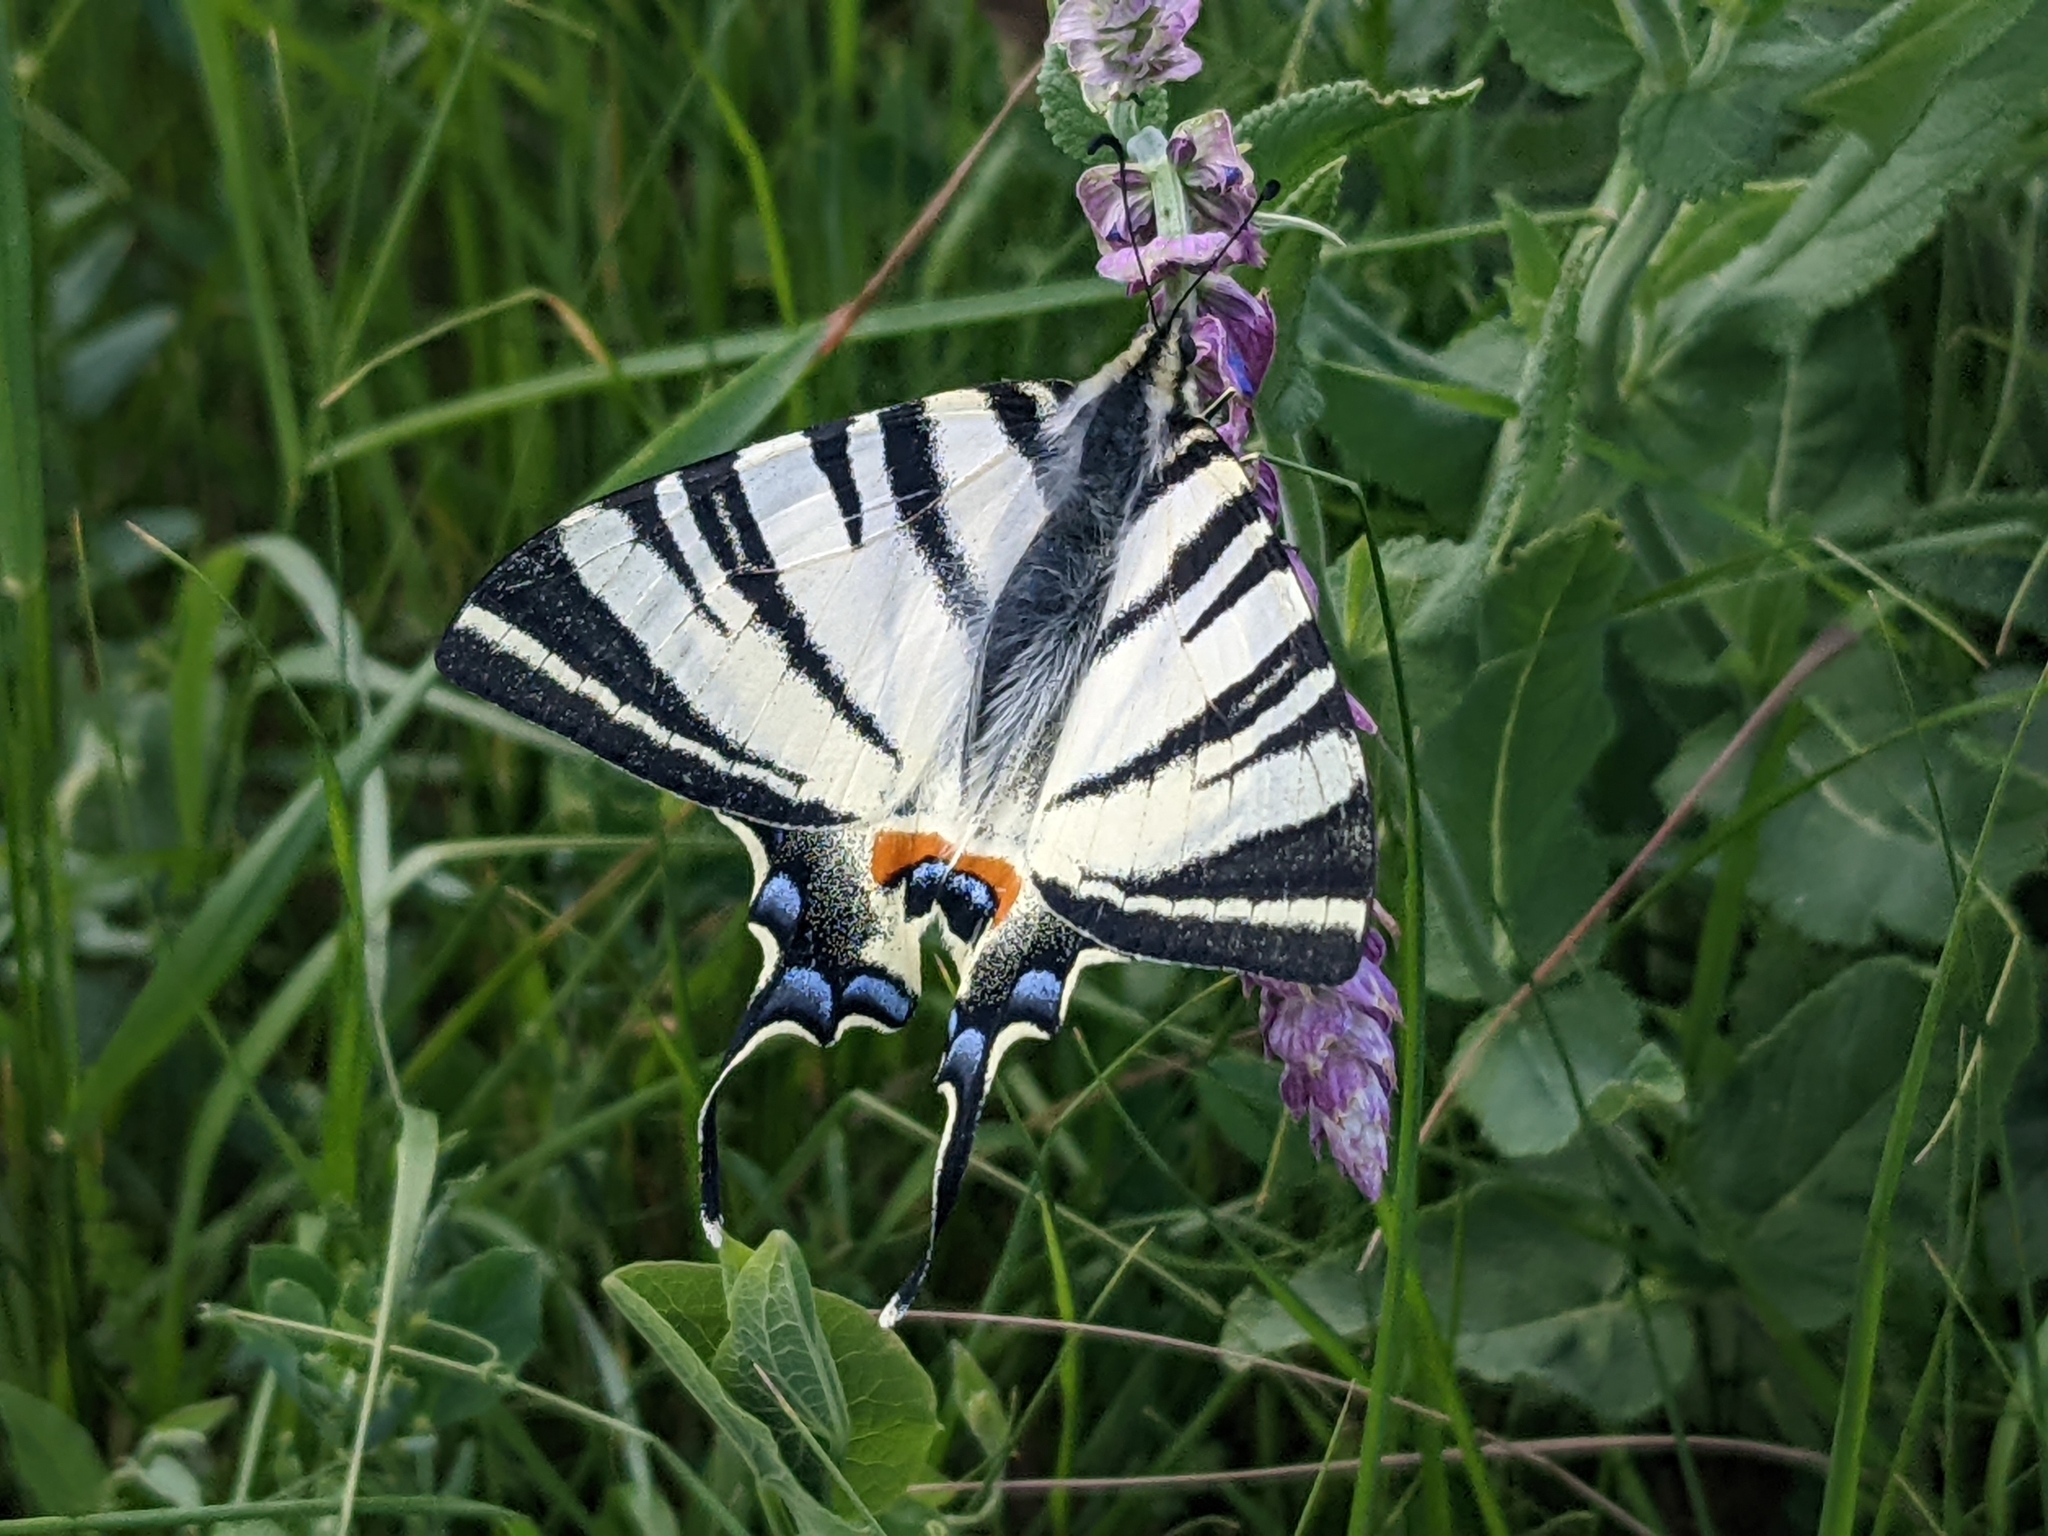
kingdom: Animalia
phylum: Arthropoda
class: Insecta
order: Lepidoptera
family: Papilionidae
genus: Iphiclides
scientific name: Iphiclides podalirius
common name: Scarce swallowtail
